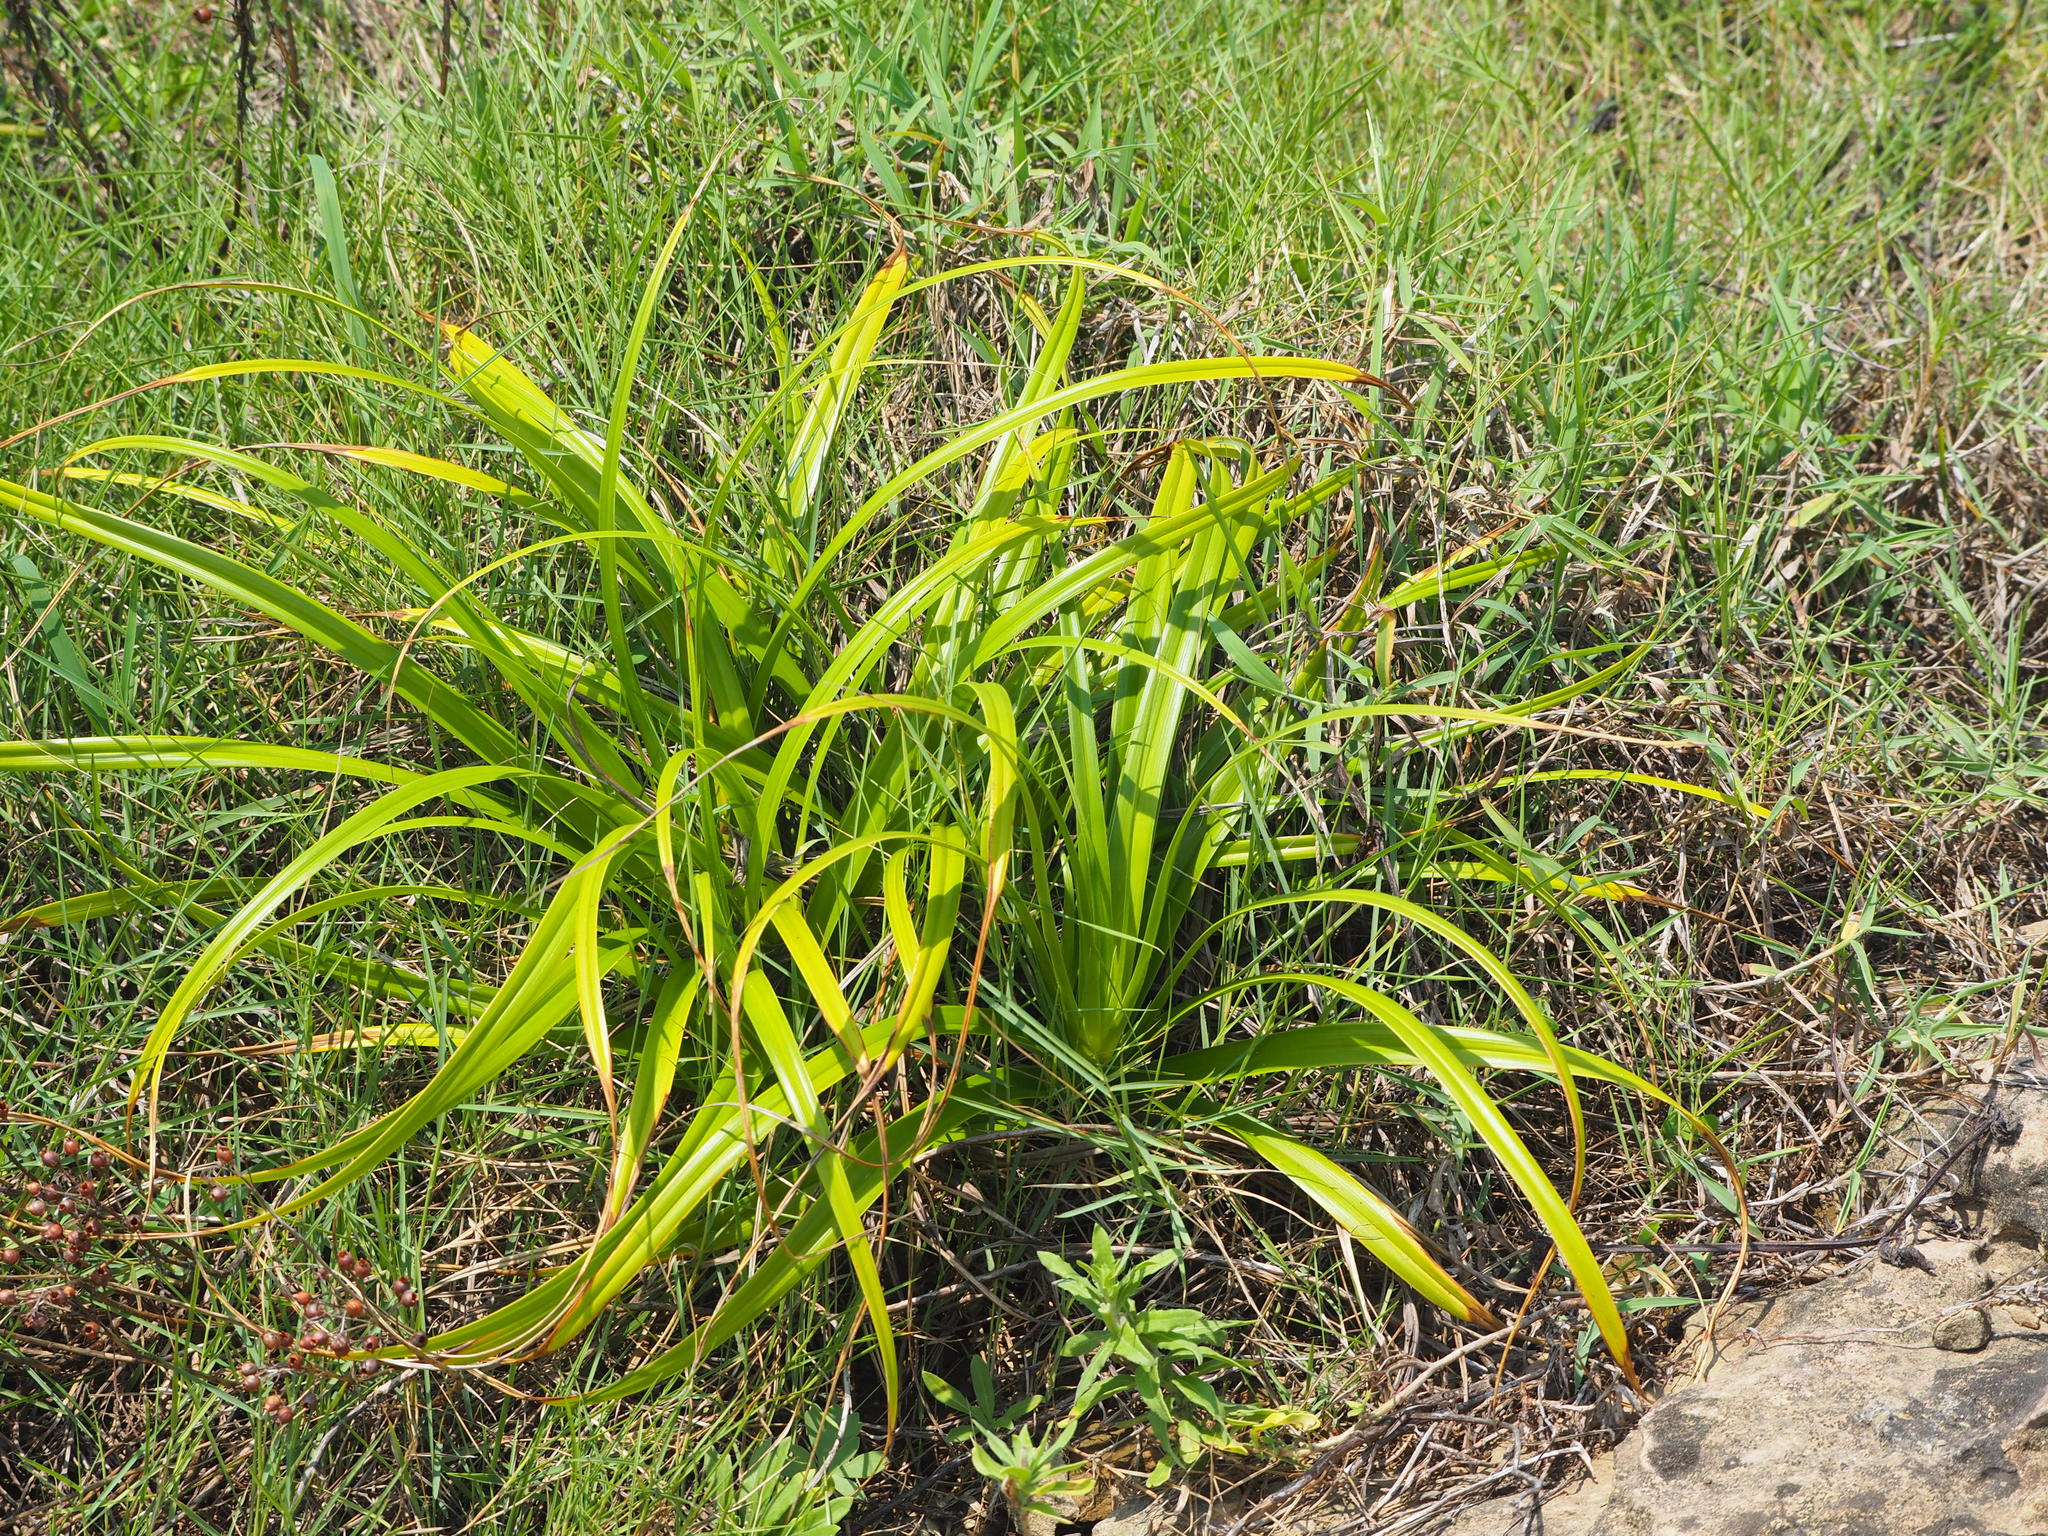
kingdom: Plantae
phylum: Tracheophyta
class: Liliopsida
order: Asparagales
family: Asphodelaceae
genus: Dianella
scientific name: Dianella ensifolia
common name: New zealand lilyplant
